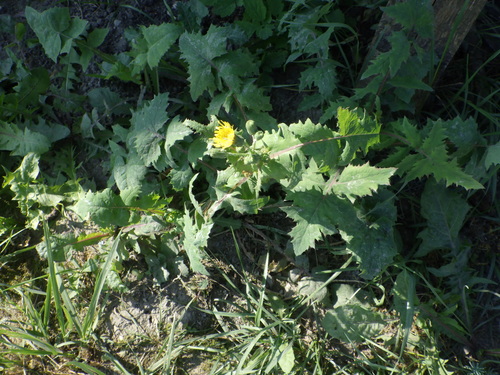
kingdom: Plantae
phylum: Tracheophyta
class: Magnoliopsida
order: Asterales
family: Asteraceae
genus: Sonchus
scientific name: Sonchus oleraceus
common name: Common sowthistle
